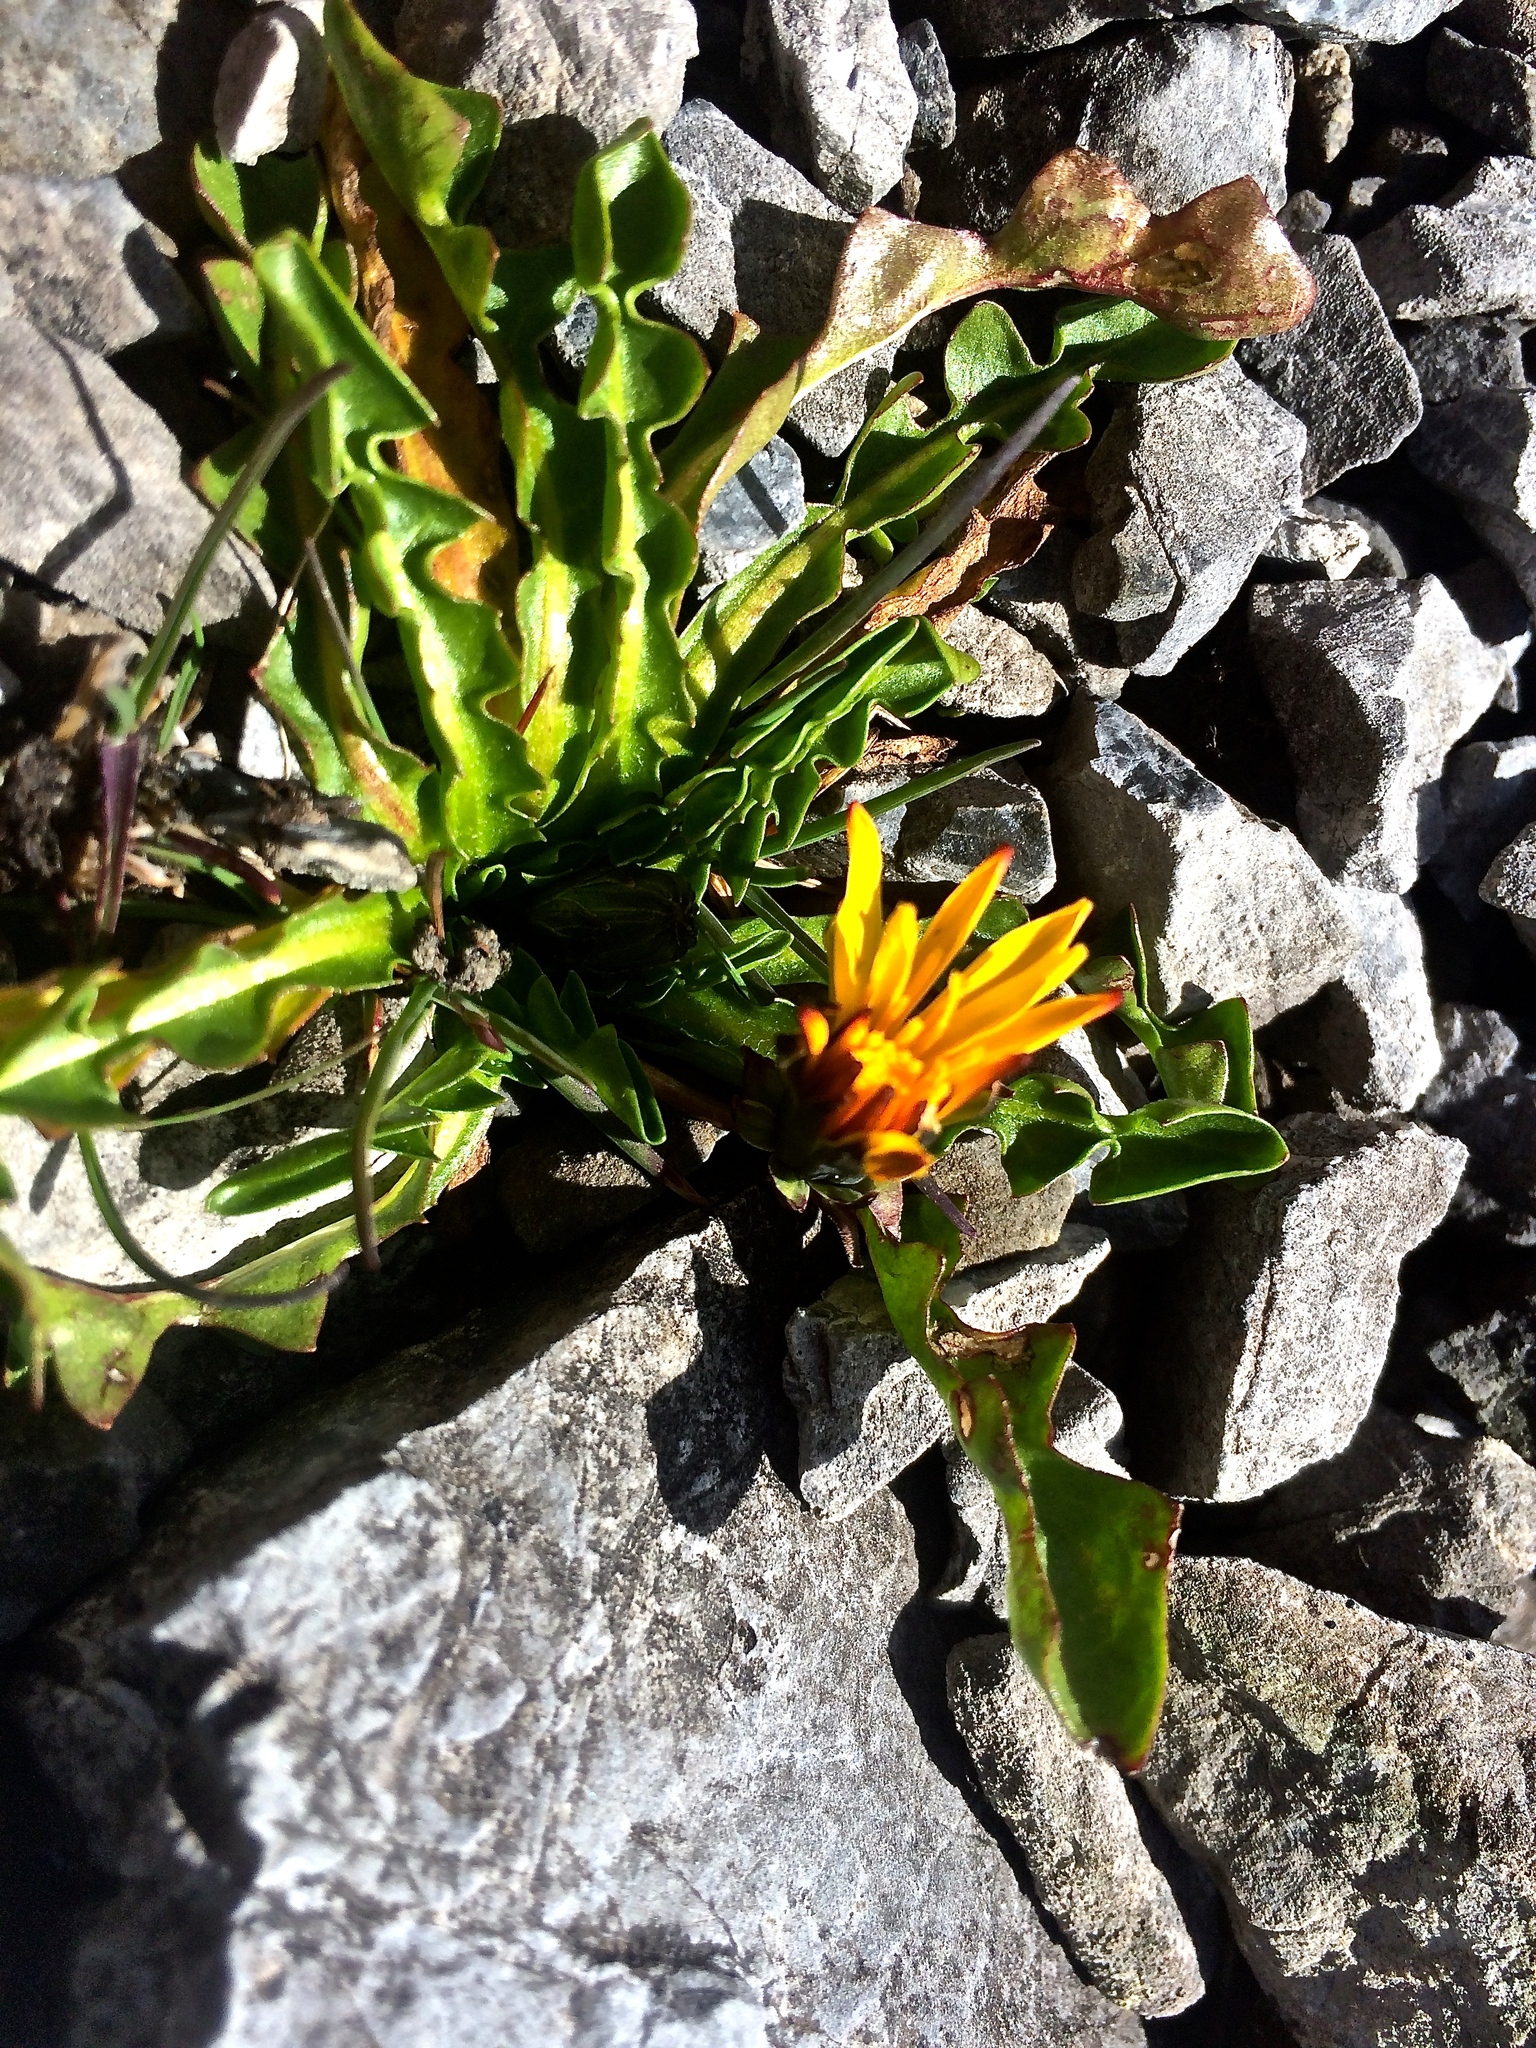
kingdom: Plantae
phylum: Tracheophyta
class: Magnoliopsida
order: Asterales
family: Asteraceae
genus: Taraxacum
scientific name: Taraxacum pacheri
